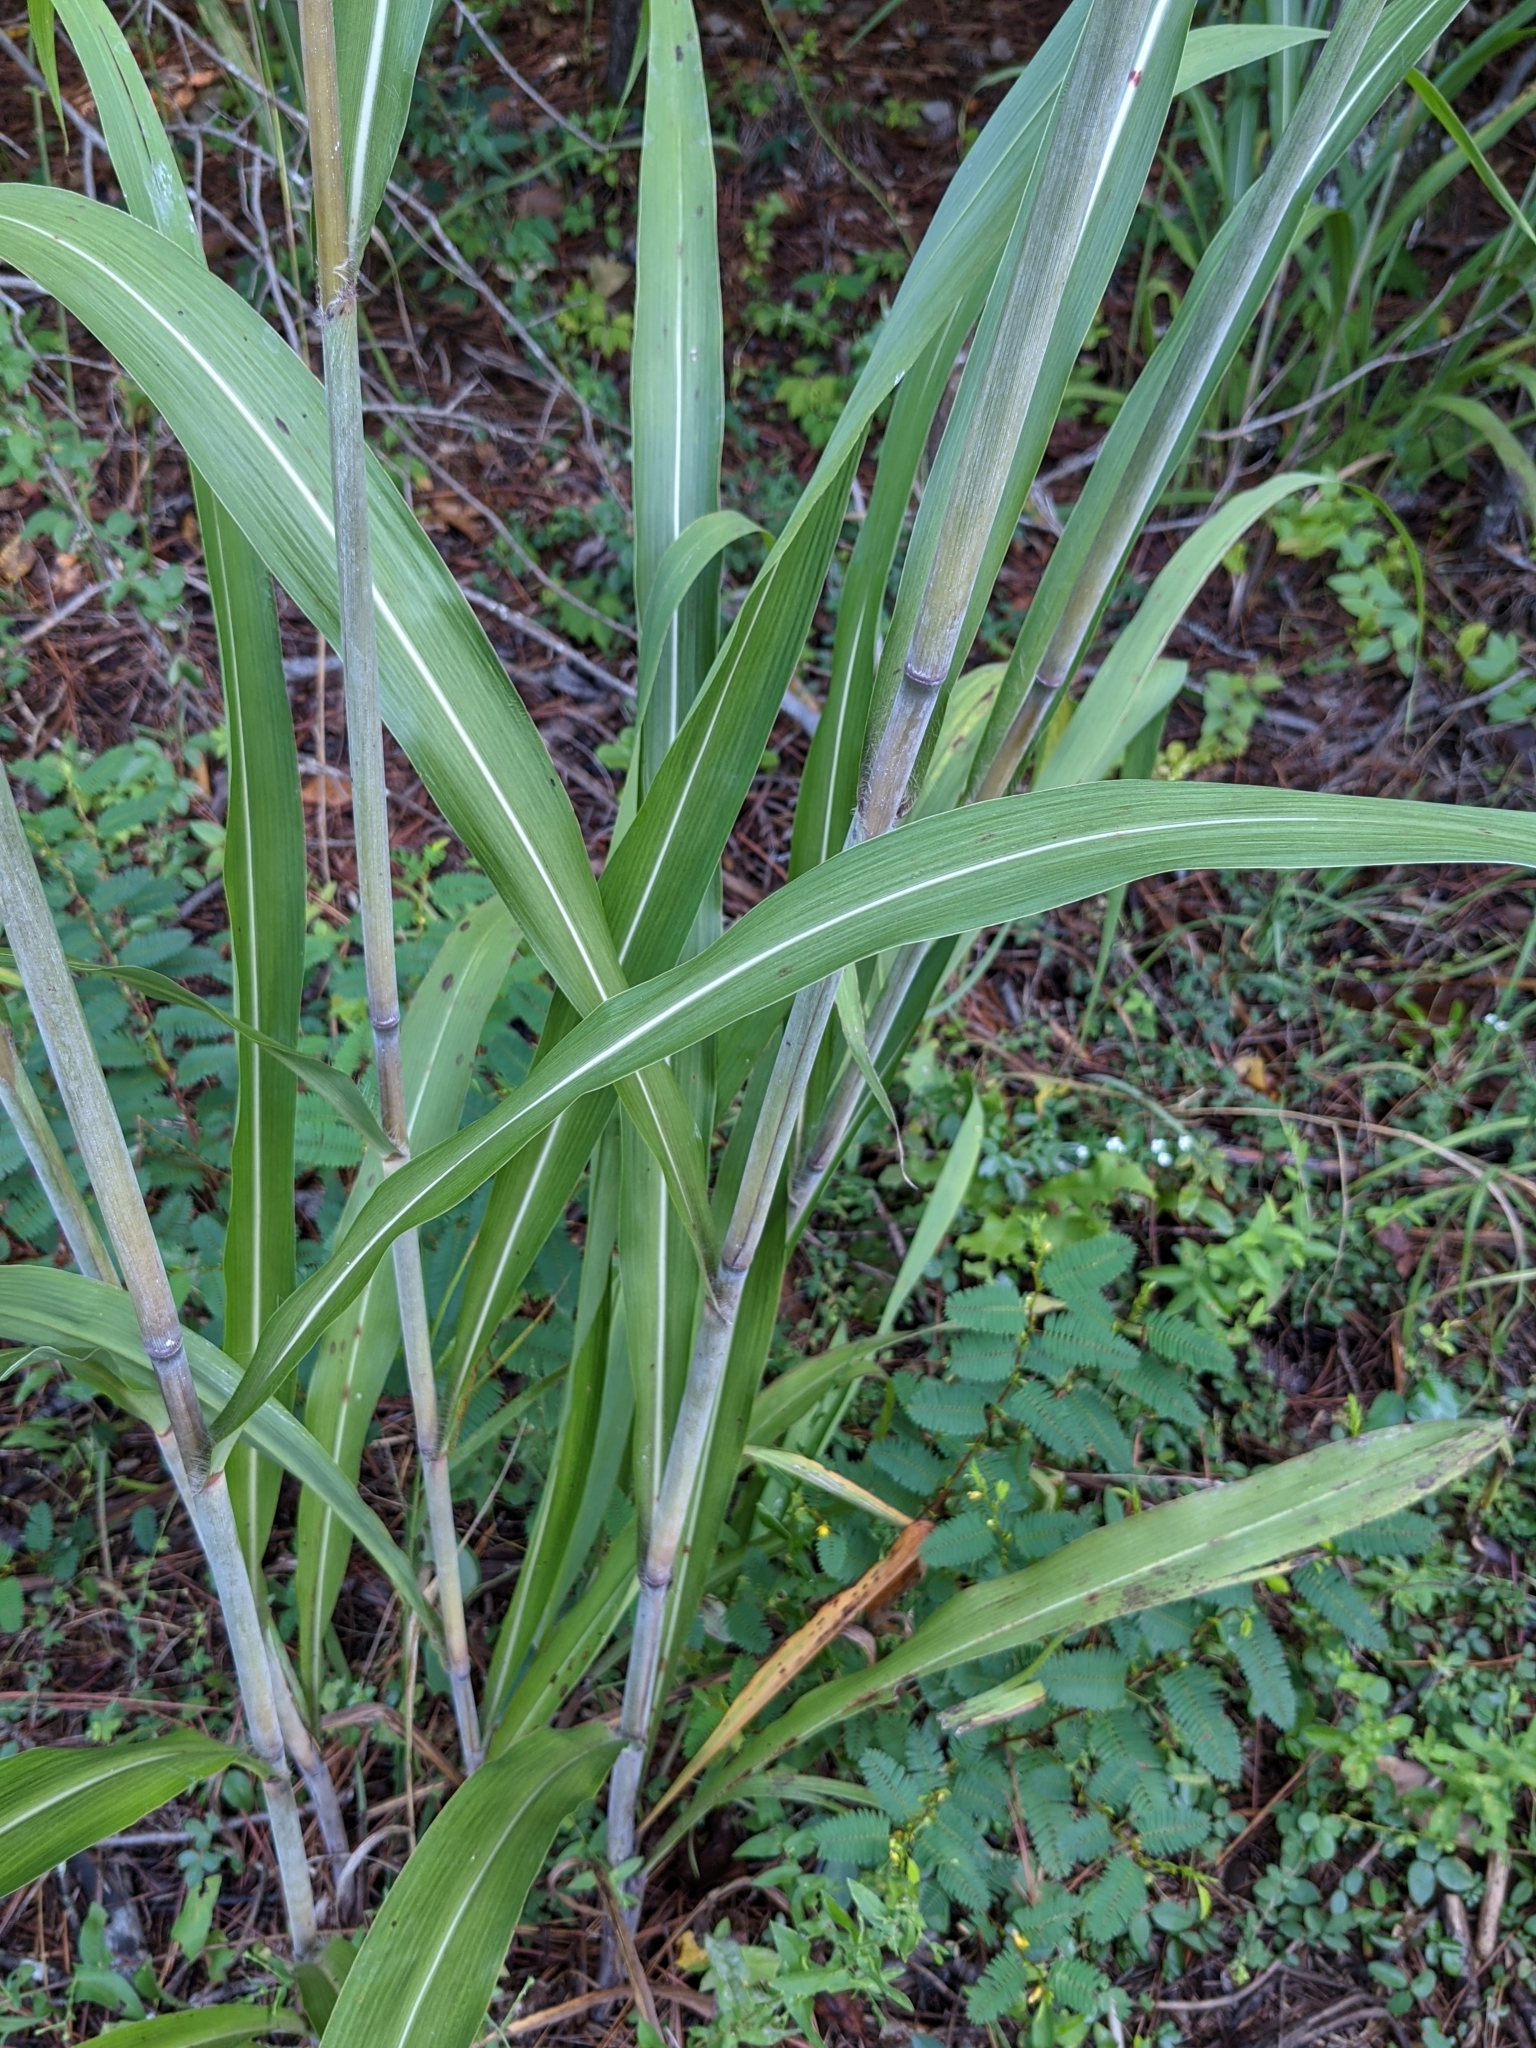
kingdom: Plantae
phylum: Tracheophyta
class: Liliopsida
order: Poales
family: Poaceae
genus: Erianthus
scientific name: Erianthus giganteus
